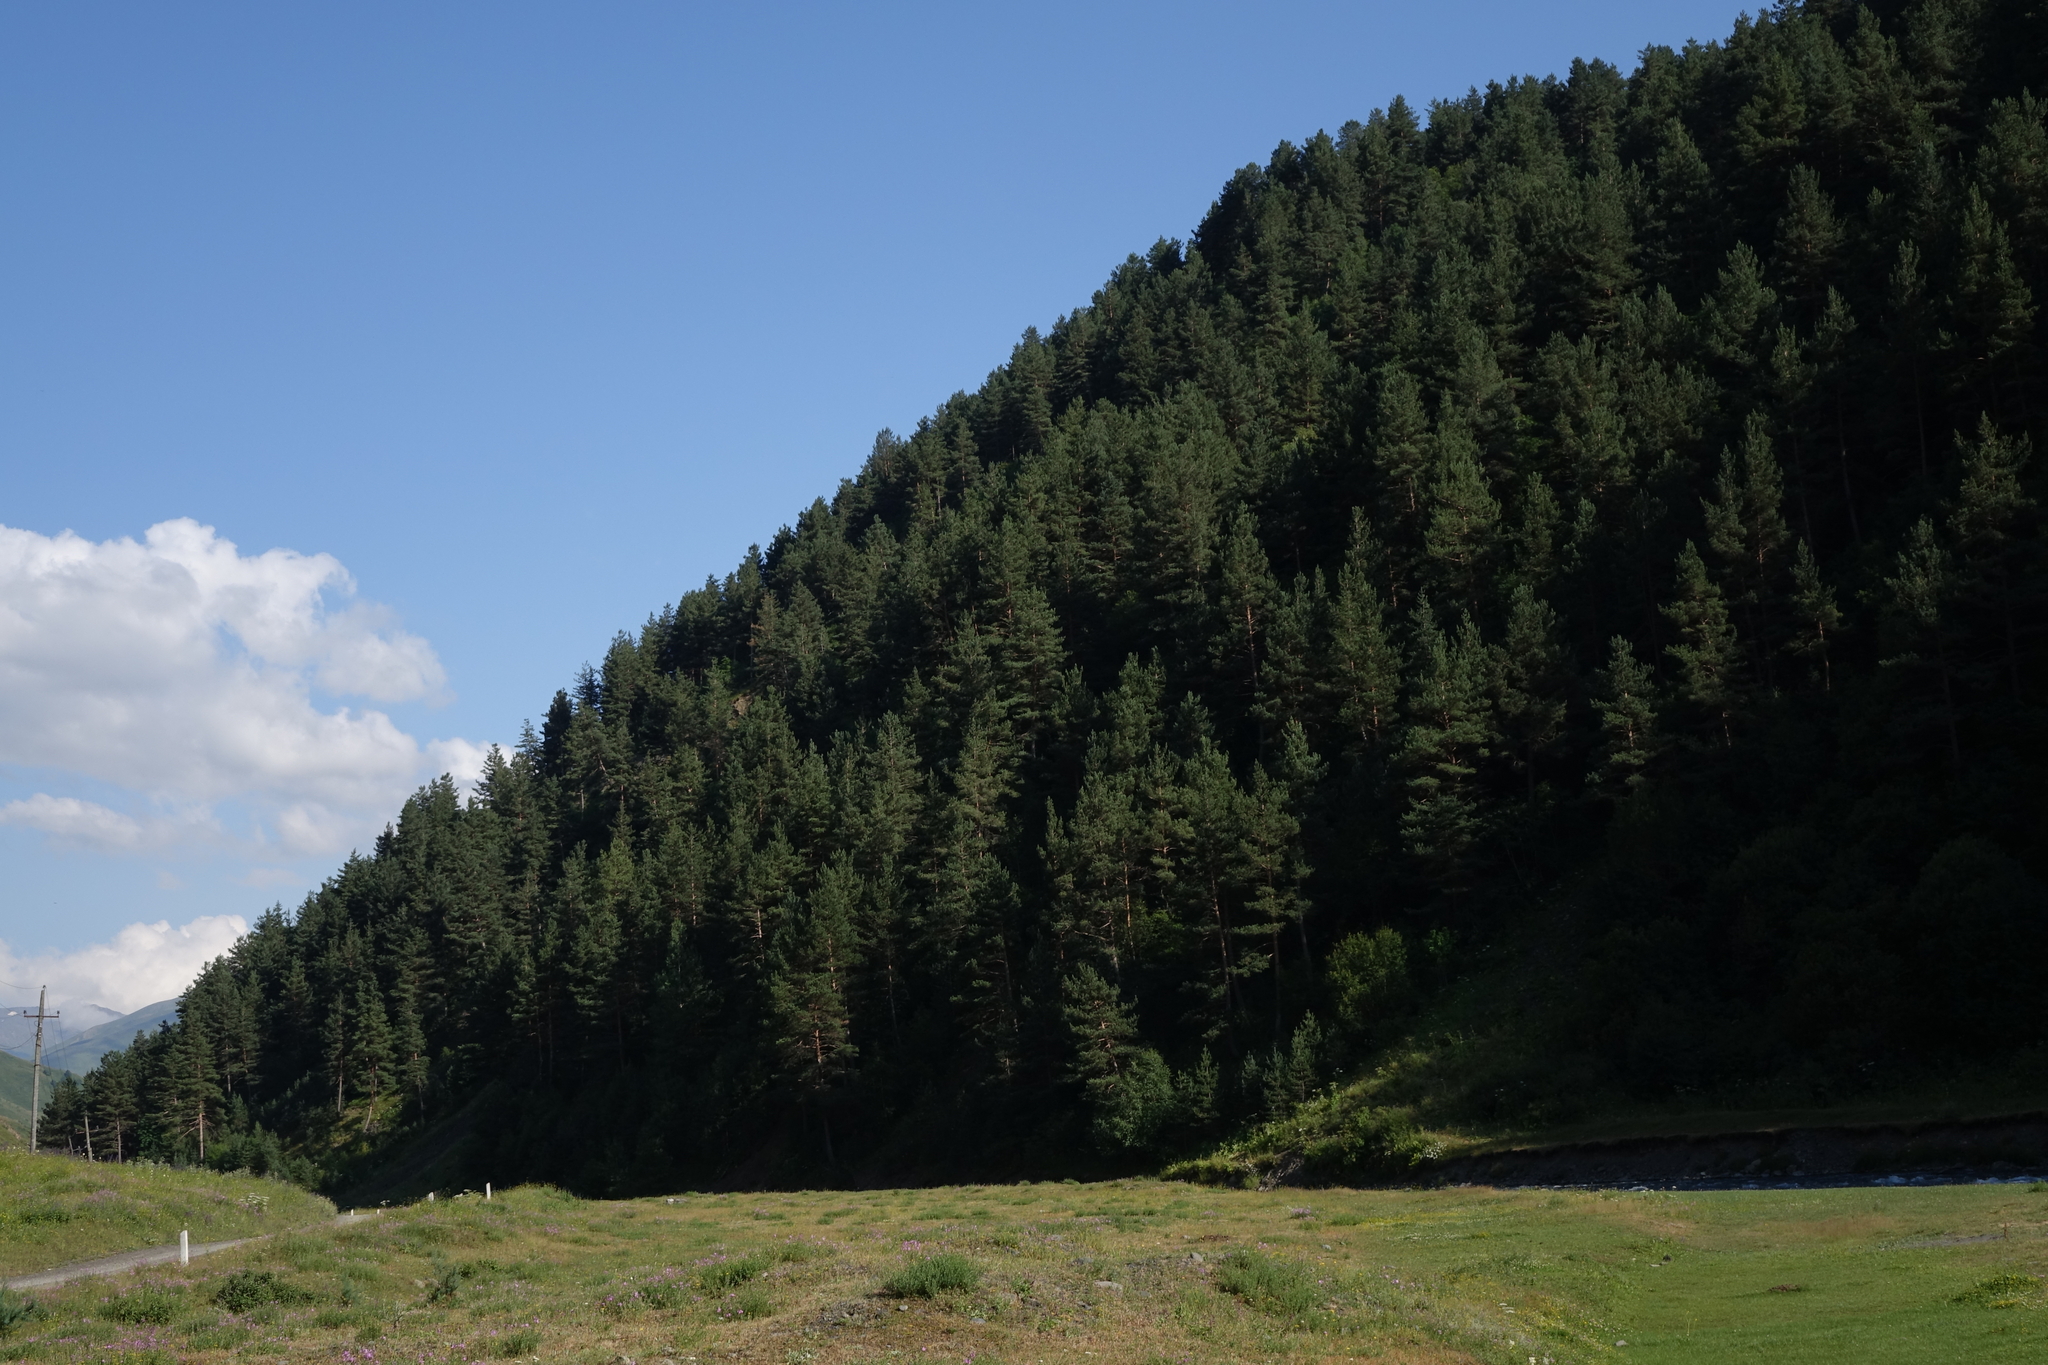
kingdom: Plantae
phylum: Tracheophyta
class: Pinopsida
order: Pinales
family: Pinaceae
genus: Pinus
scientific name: Pinus sylvestris
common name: Scots pine
